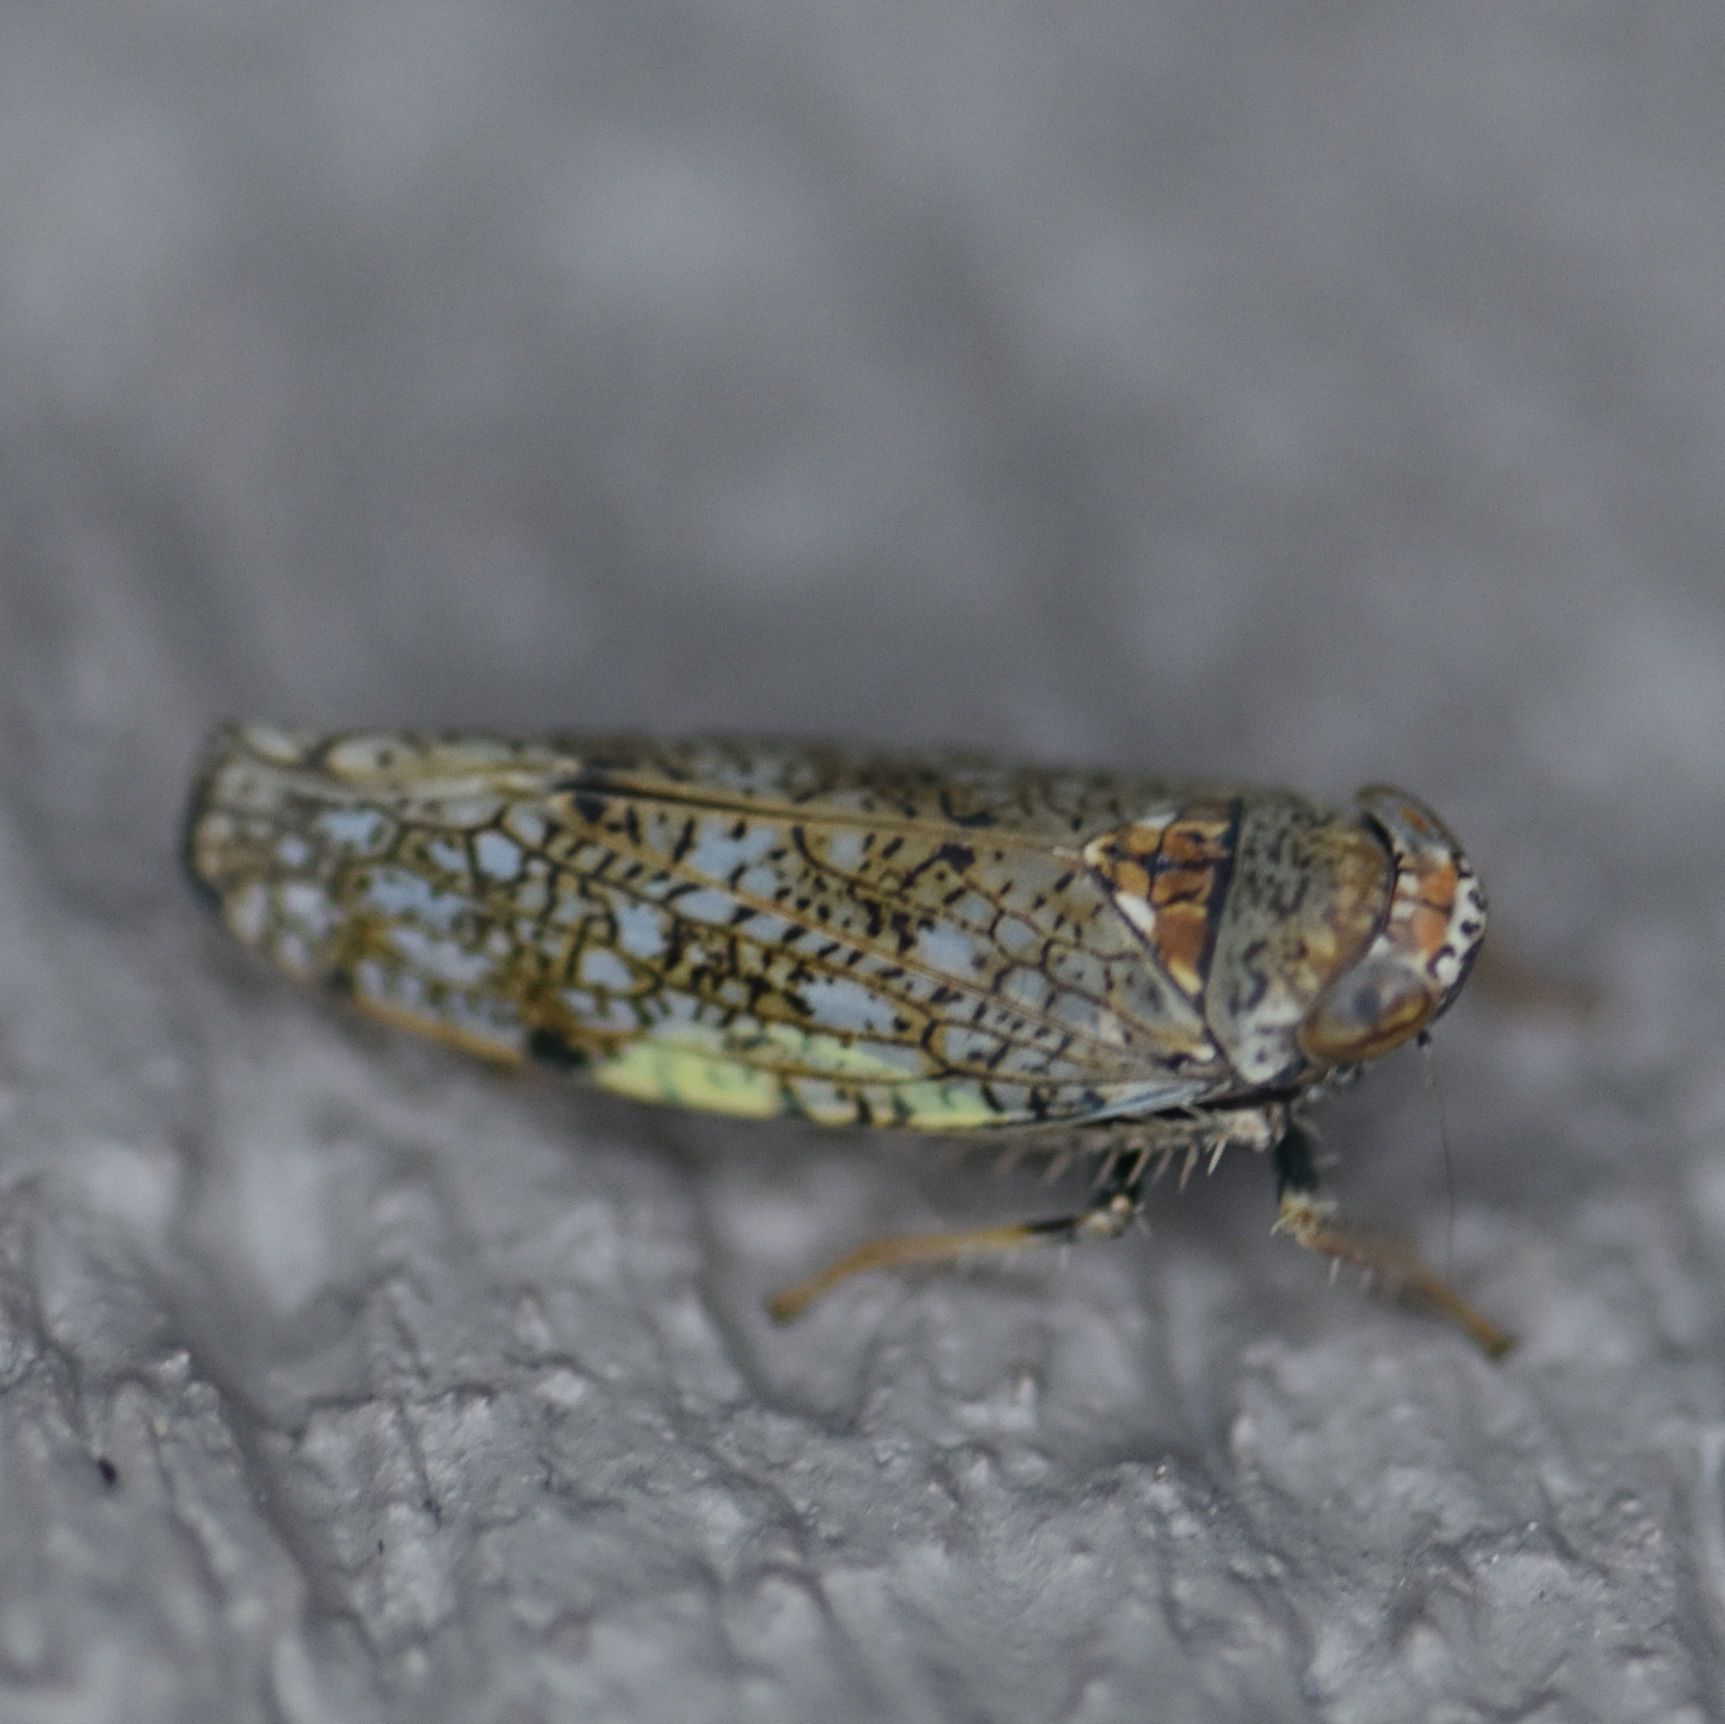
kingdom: Animalia
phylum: Arthropoda
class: Insecta
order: Hemiptera
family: Cicadellidae
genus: Orientus
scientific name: Orientus ishidae
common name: Japanese leafhopper
